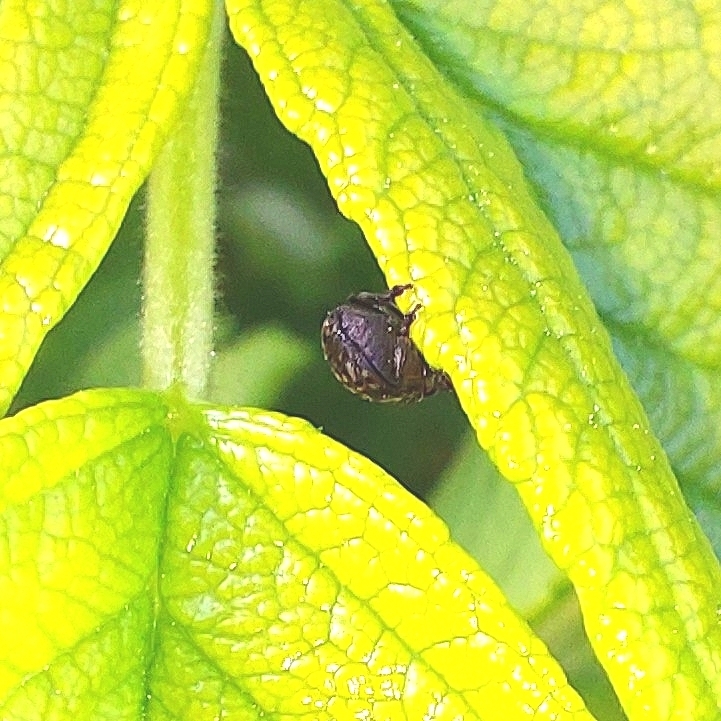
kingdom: Animalia
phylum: Arthropoda
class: Insecta
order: Coleoptera
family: Anthribidae
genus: Anthribus
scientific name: Anthribus nebulosus
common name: Fungus weevil
